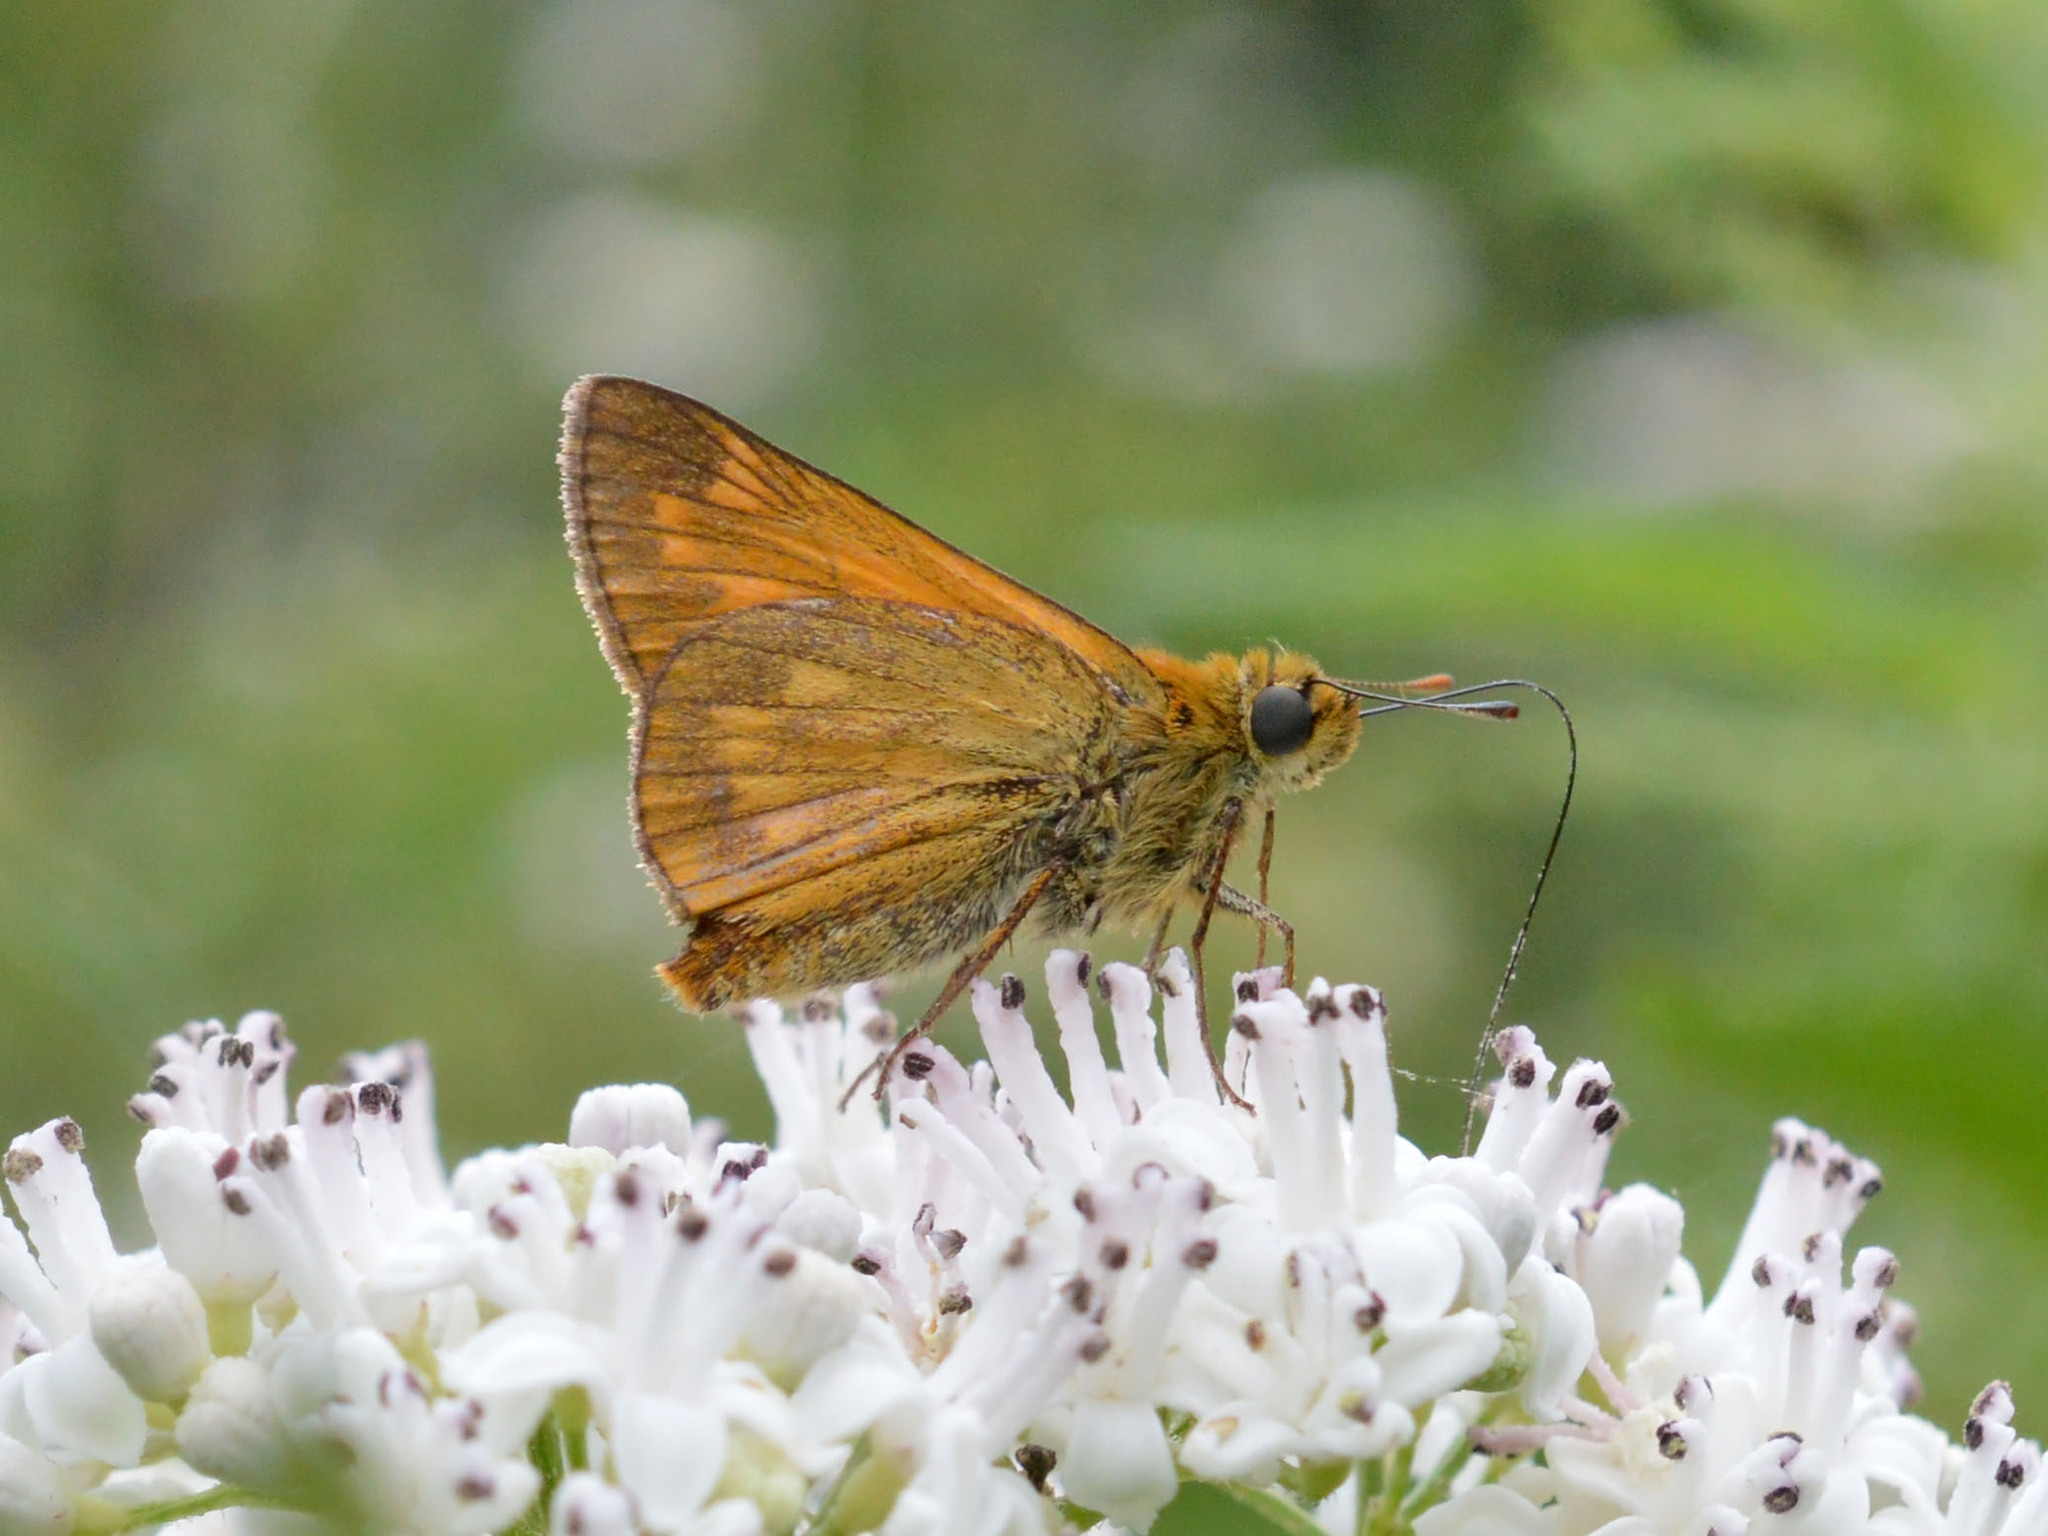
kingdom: Animalia
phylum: Arthropoda
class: Insecta
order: Lepidoptera
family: Hesperiidae
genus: Ochlodes
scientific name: Ochlodes venata
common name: Large skipper
